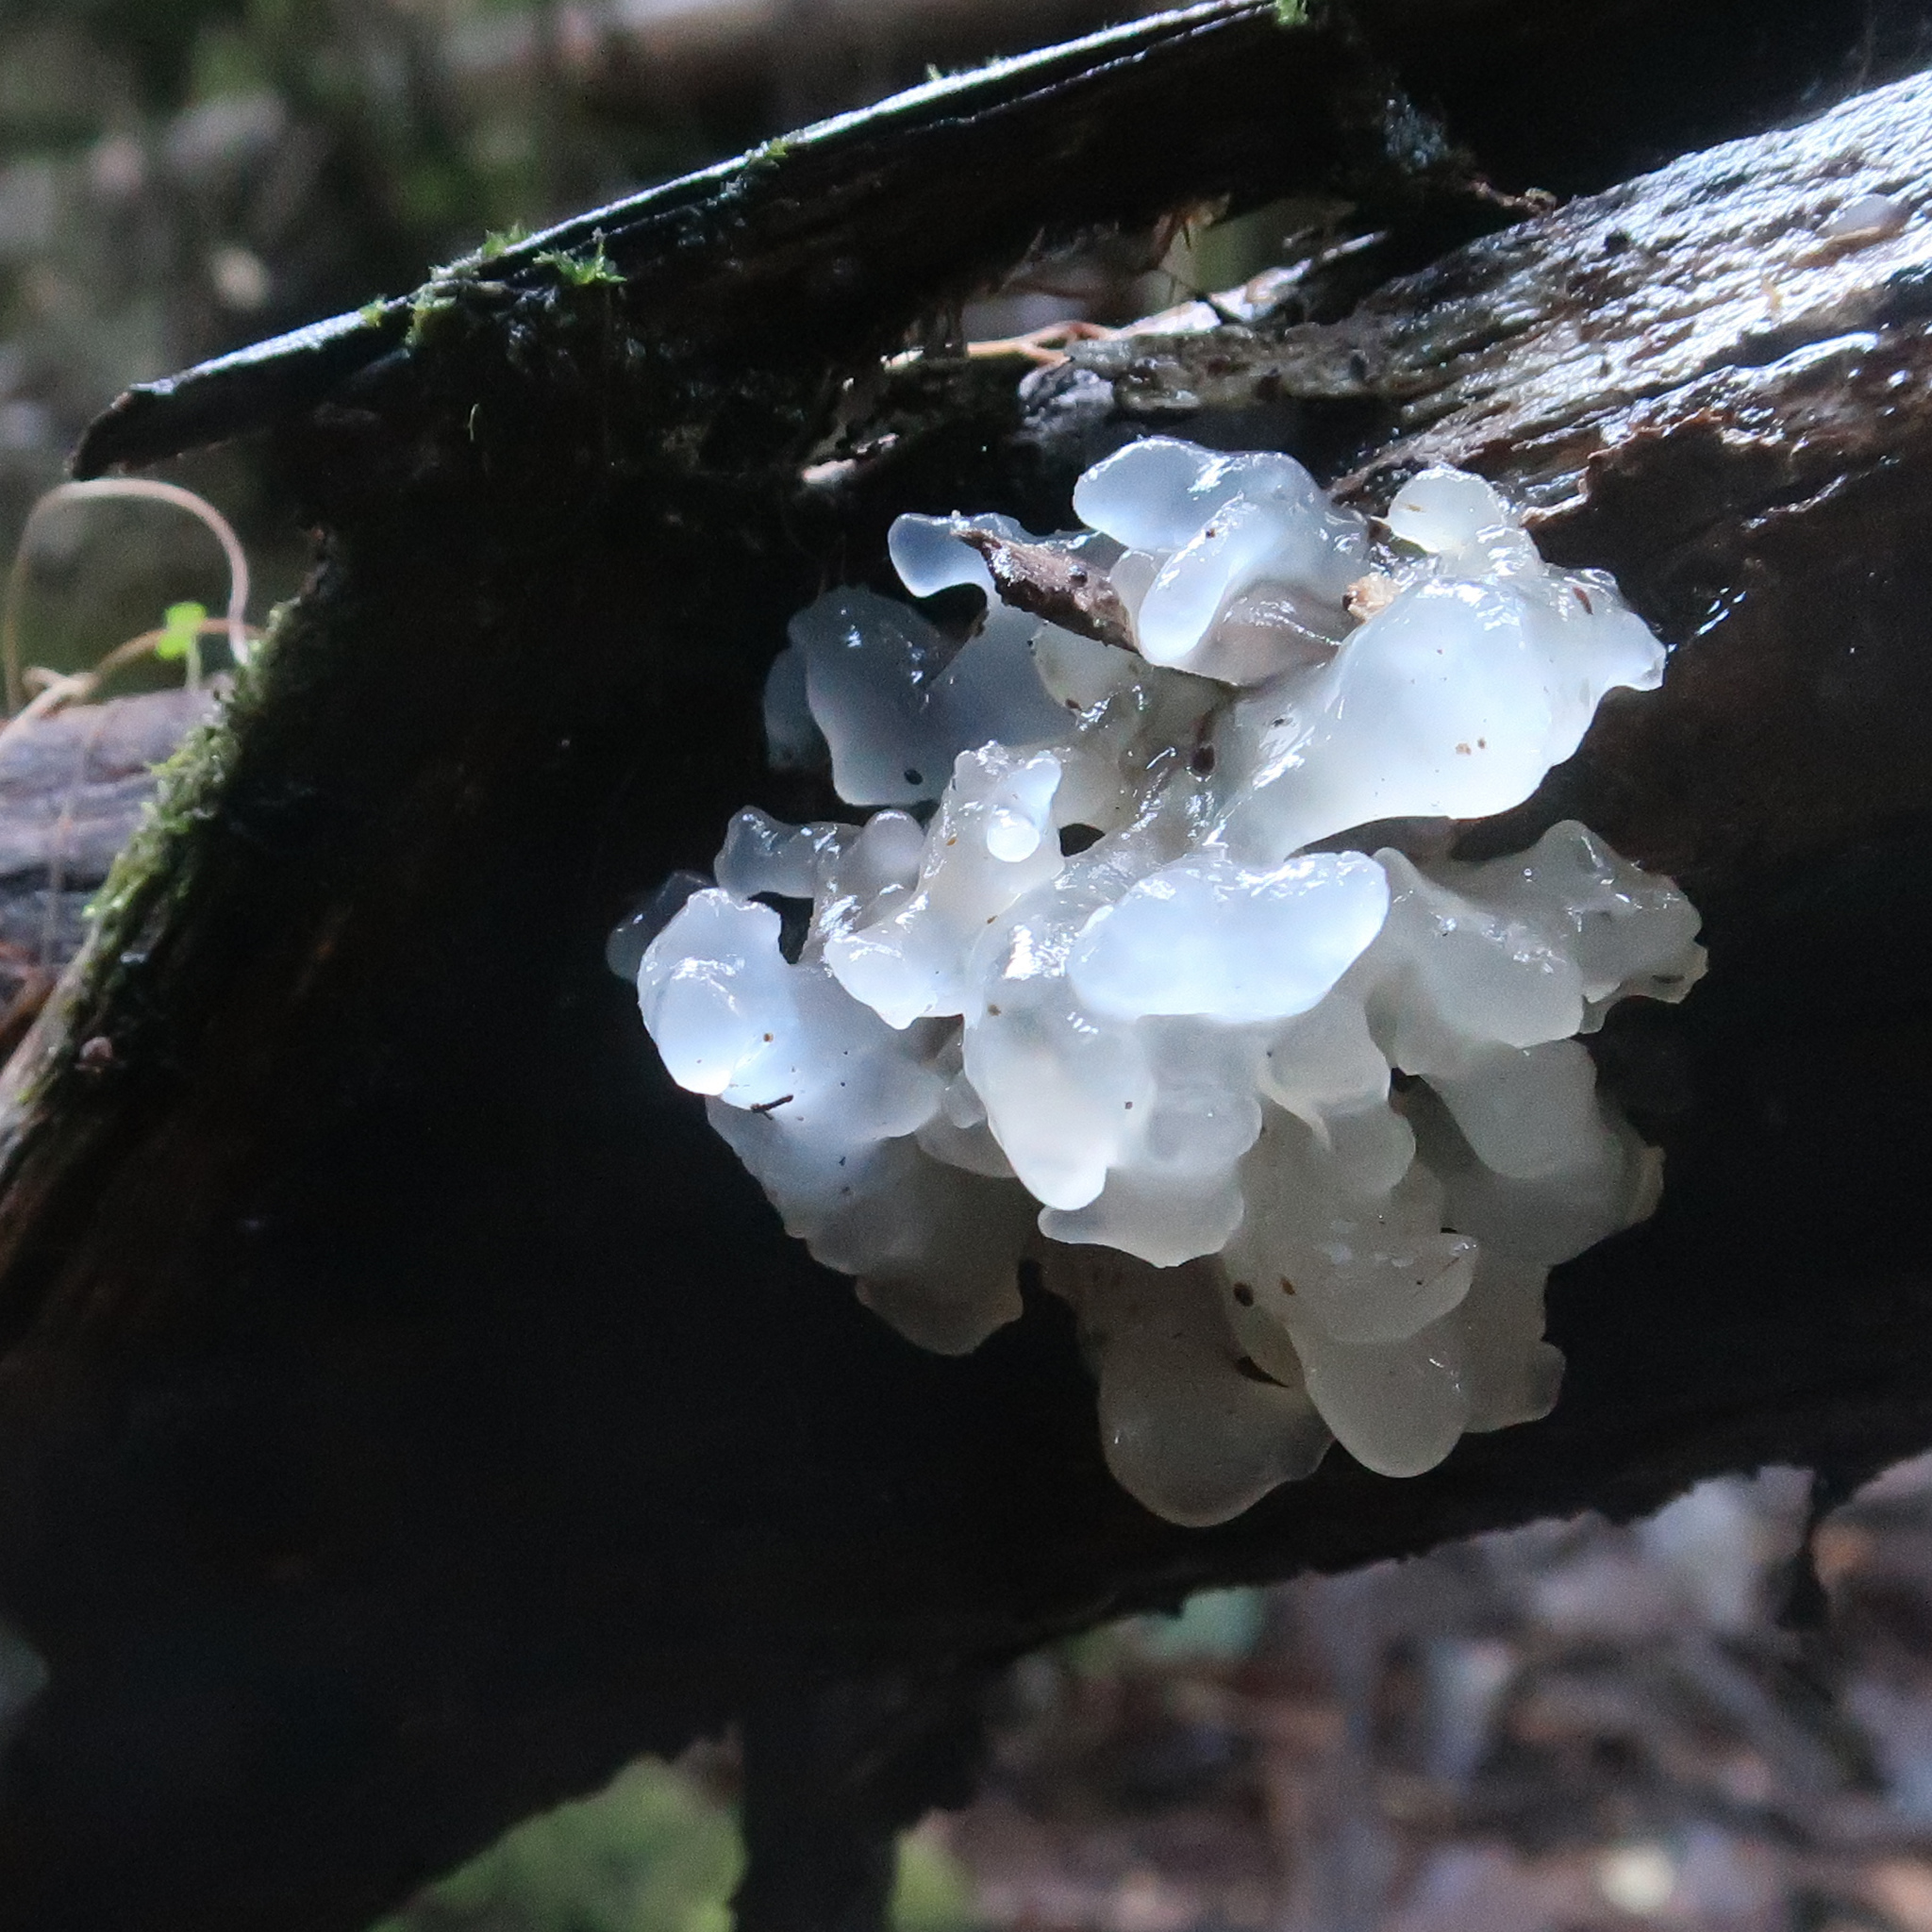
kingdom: Fungi
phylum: Basidiomycota
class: Tremellomycetes
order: Tremellales
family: Tremellaceae
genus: Tremella
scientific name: Tremella fuciformis
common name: Snow fungus
